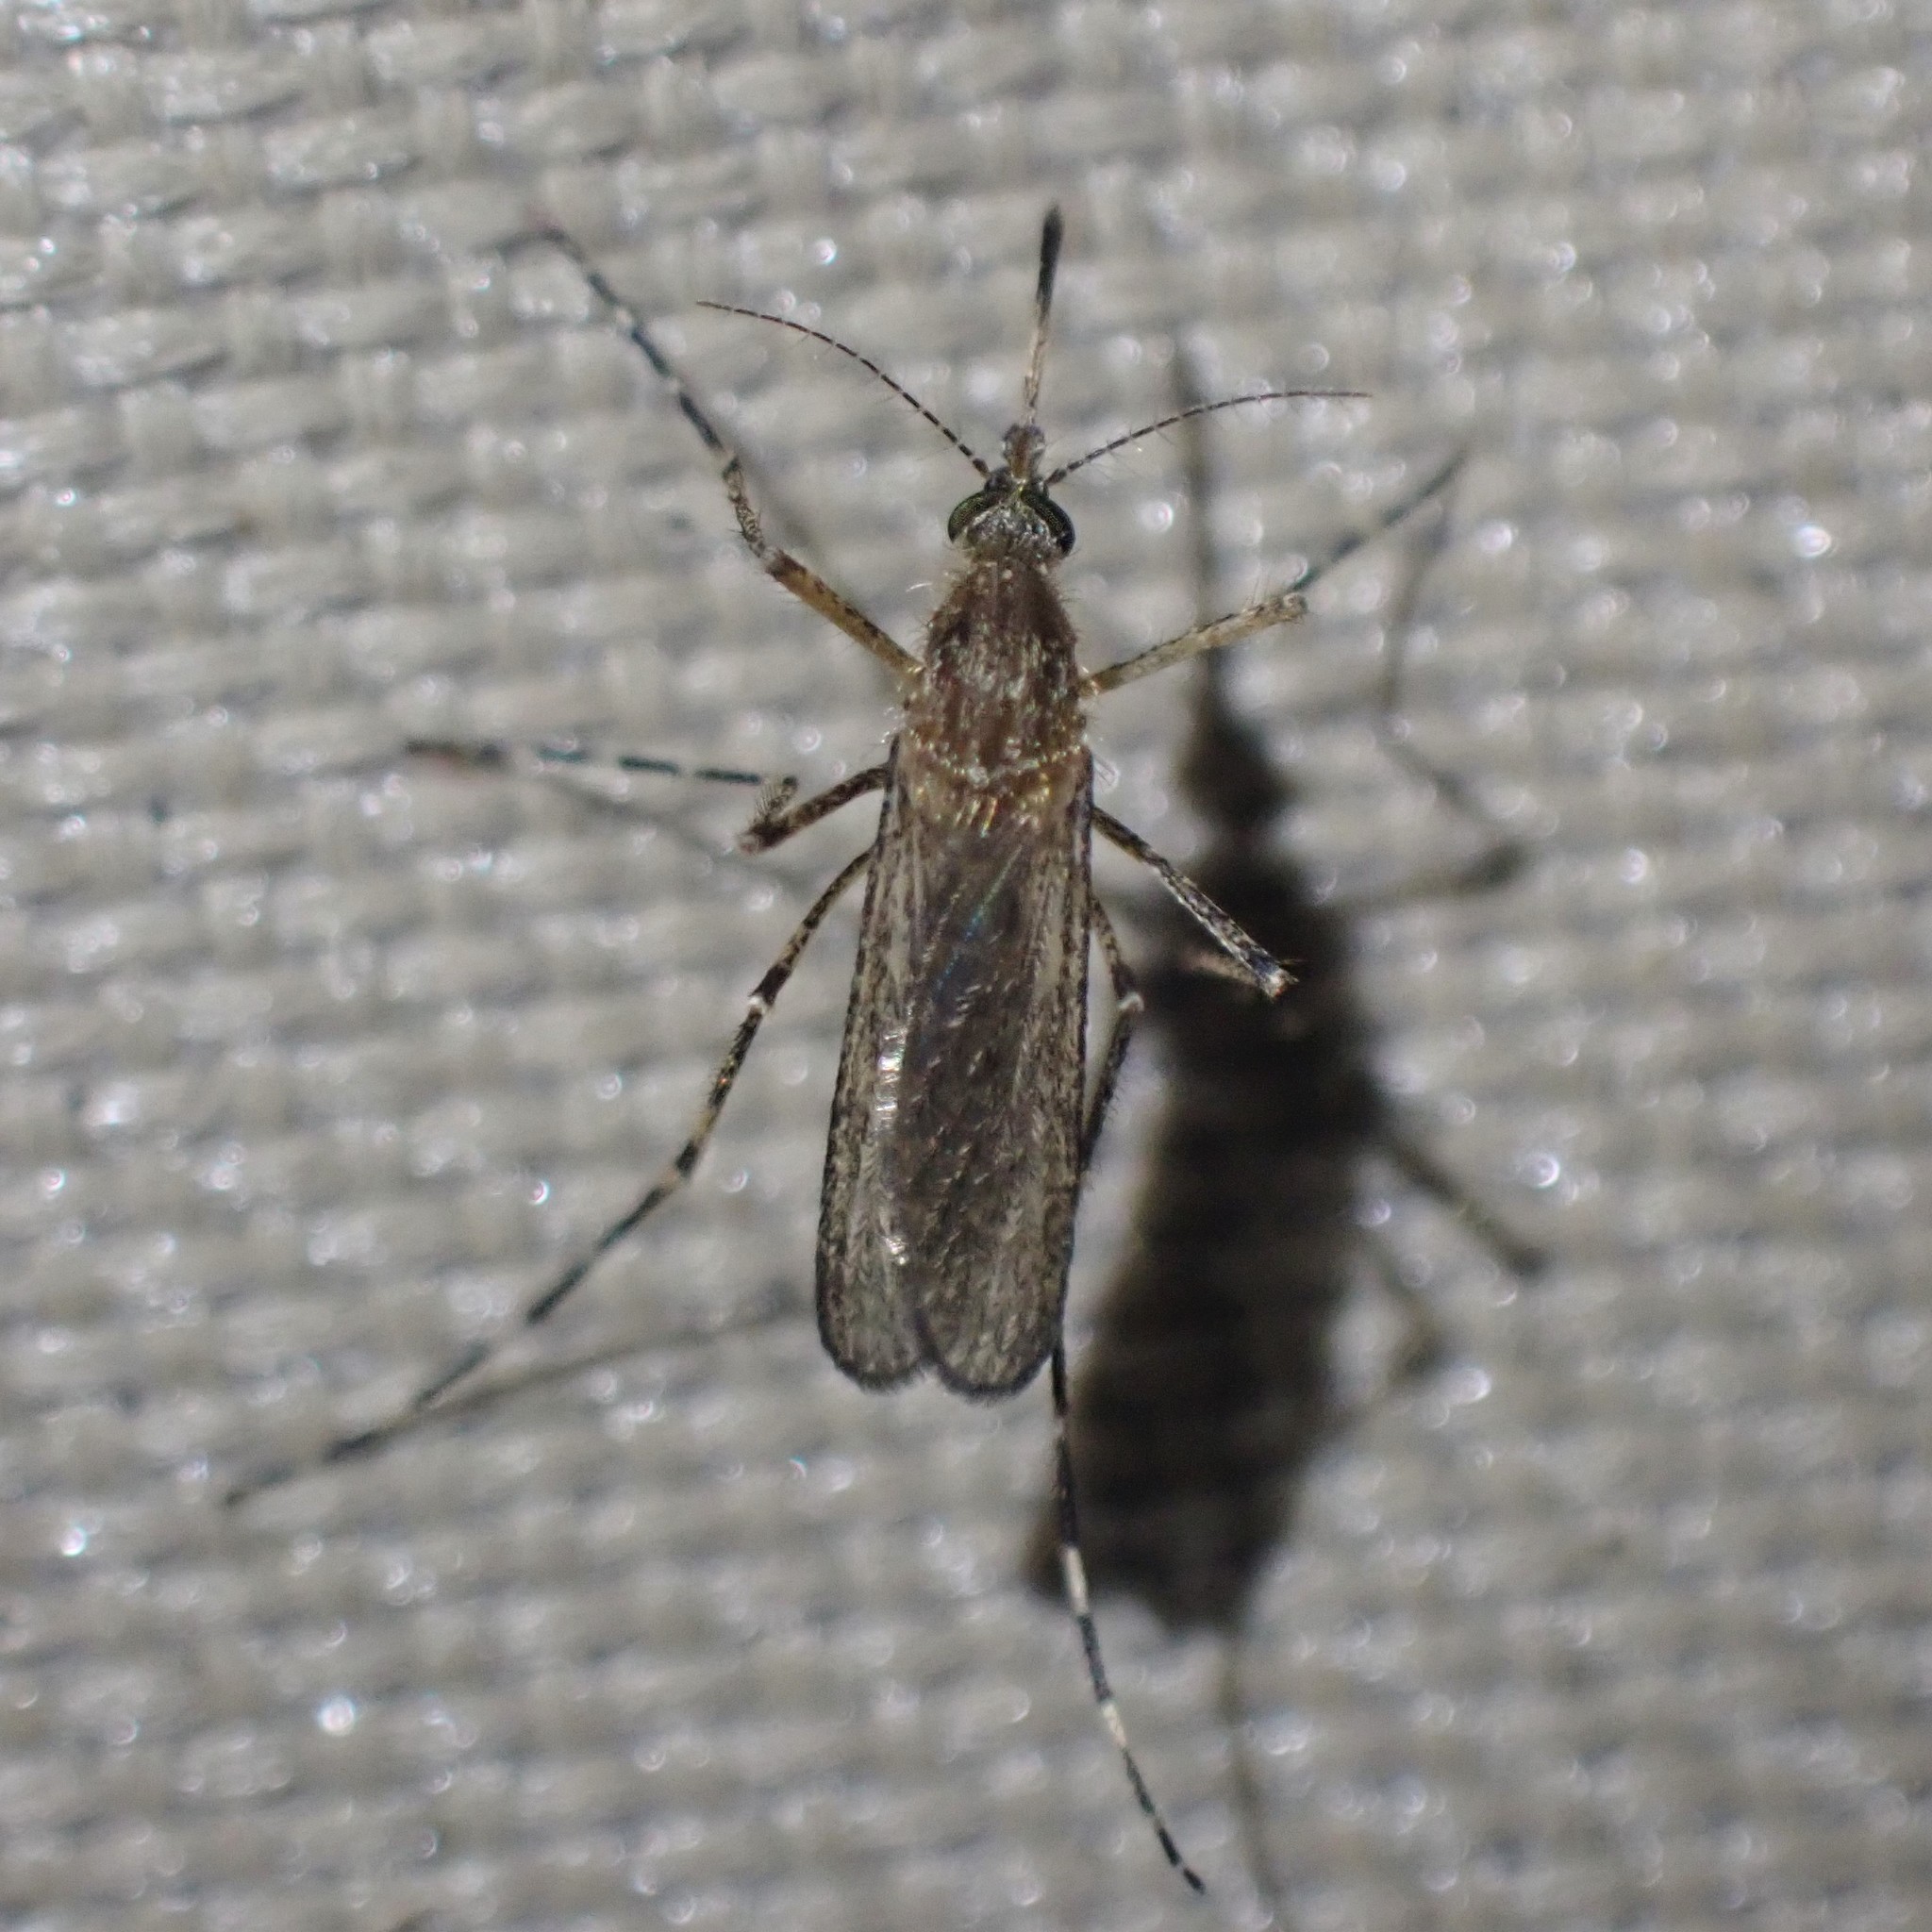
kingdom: Animalia
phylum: Arthropoda
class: Insecta
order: Diptera
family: Culicidae
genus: Coquillettidia
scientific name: Coquillettidia perturbans
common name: Cattail mosquito
